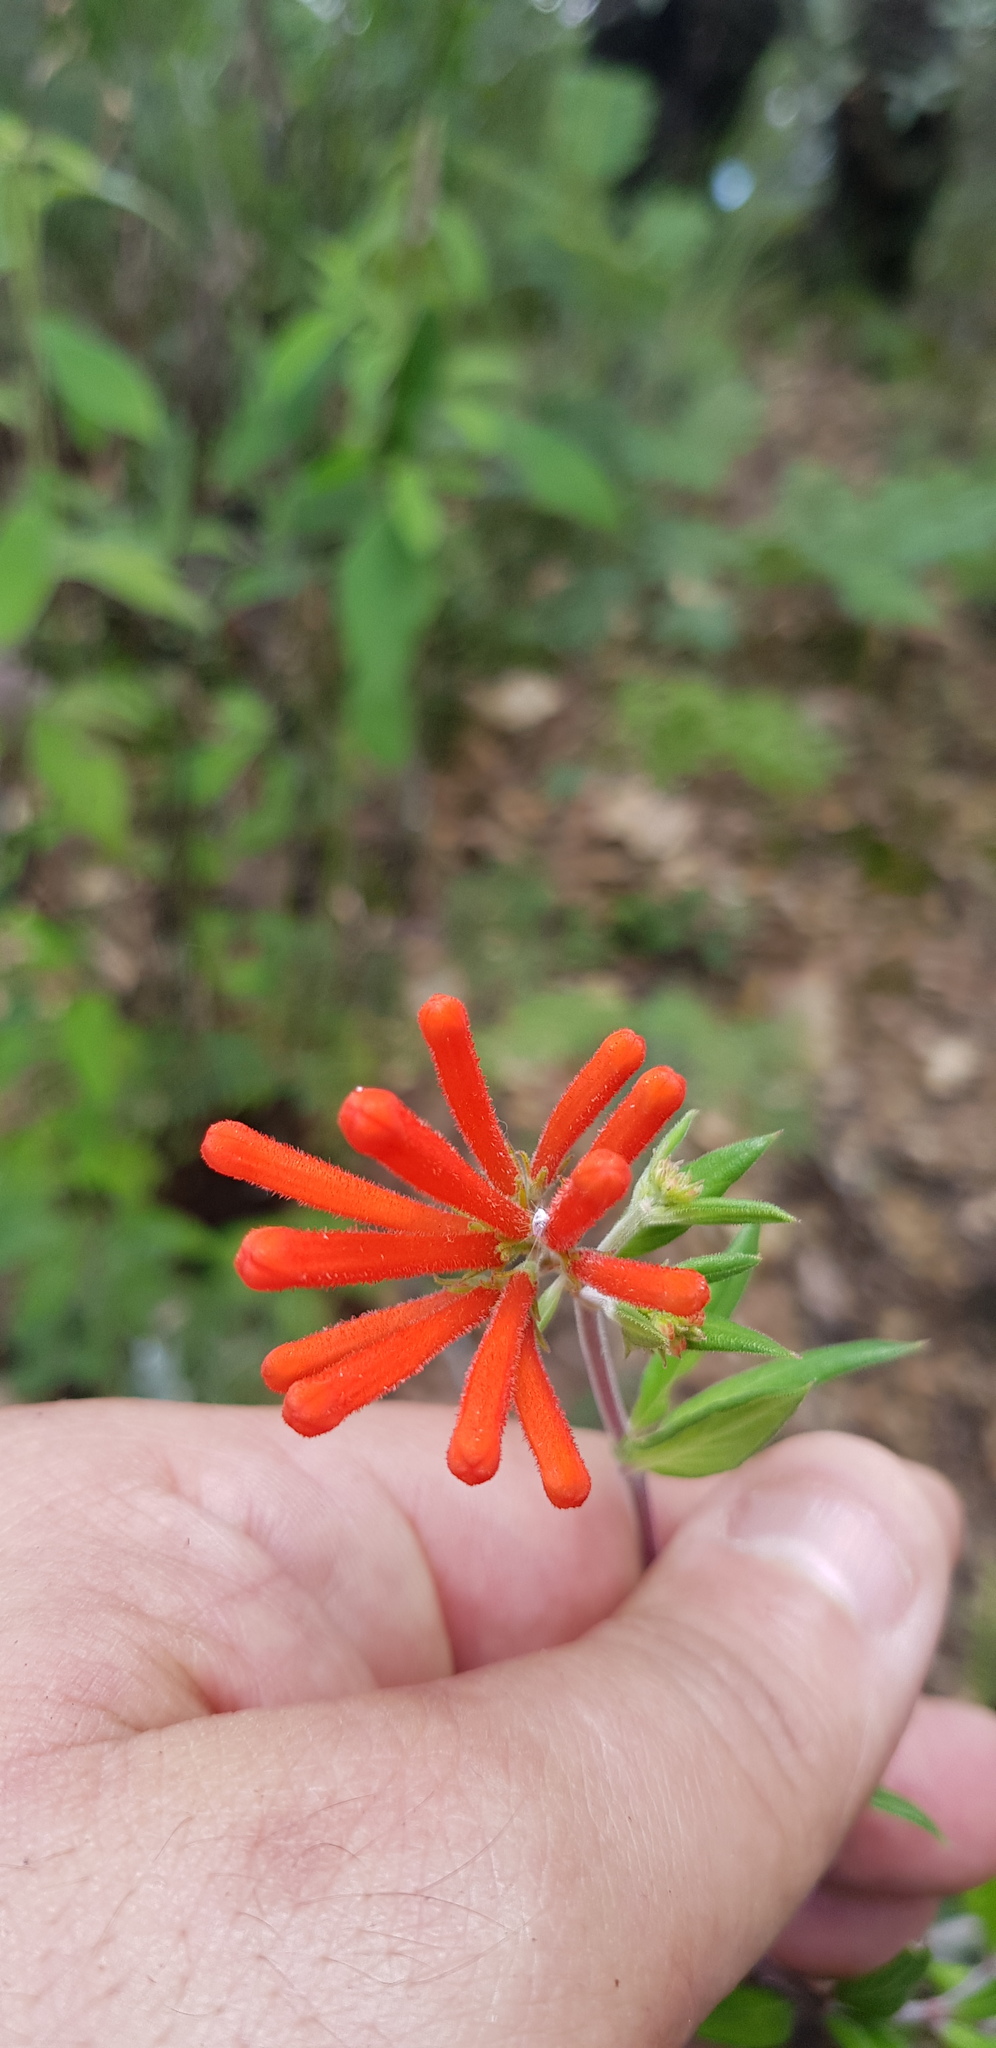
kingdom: Plantae
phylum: Tracheophyta
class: Magnoliopsida
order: Gentianales
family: Rubiaceae
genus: Bouvardia
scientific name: Bouvardia ternifolia
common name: Scarlet bouvardia
